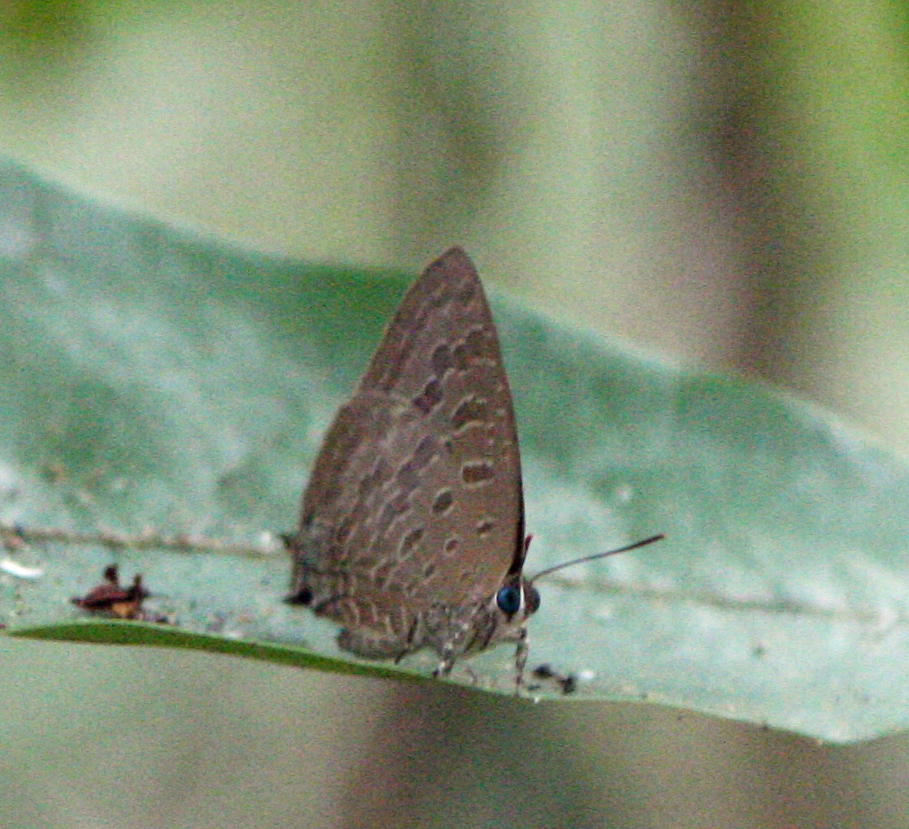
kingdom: Animalia
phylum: Arthropoda
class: Insecta
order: Lepidoptera
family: Lycaenidae
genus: Arhopala
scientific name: Arhopala aida
